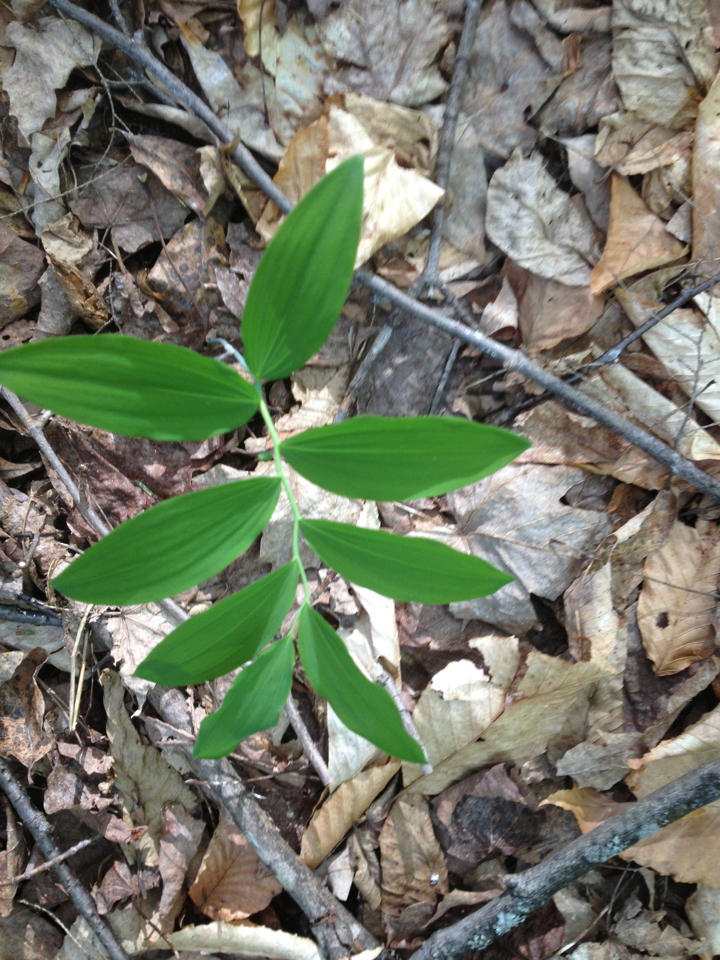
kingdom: Plantae
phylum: Tracheophyta
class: Liliopsida
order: Asparagales
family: Asparagaceae
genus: Polygonatum
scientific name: Polygonatum pubescens
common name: Downy solomon's seal
